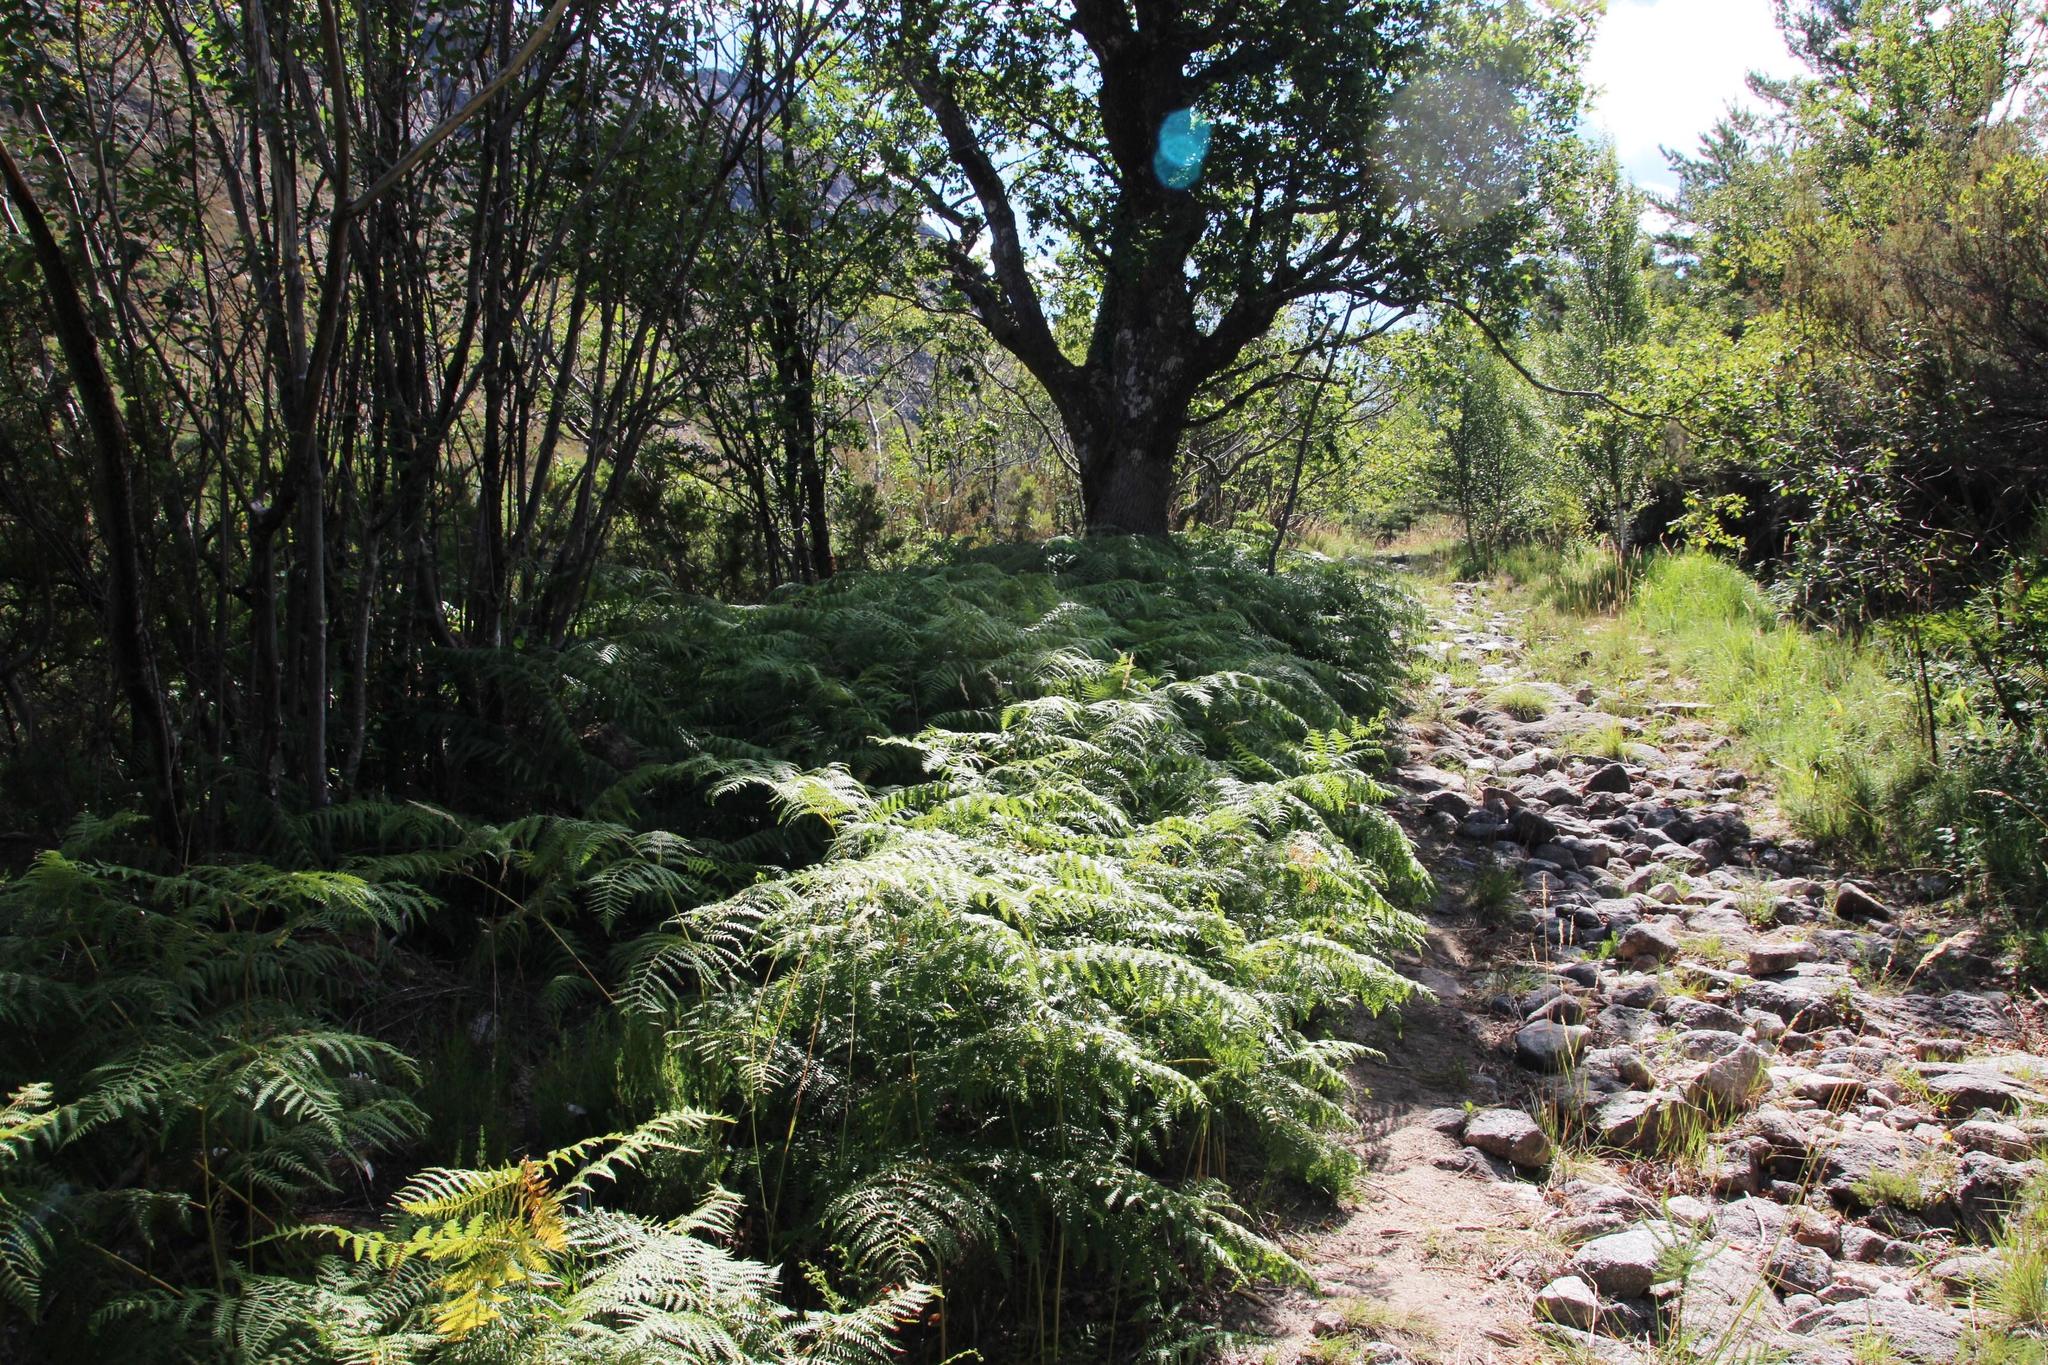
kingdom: Plantae
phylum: Tracheophyta
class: Polypodiopsida
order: Polypodiales
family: Dennstaedtiaceae
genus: Pteridium
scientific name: Pteridium aquilinum
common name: Bracken
